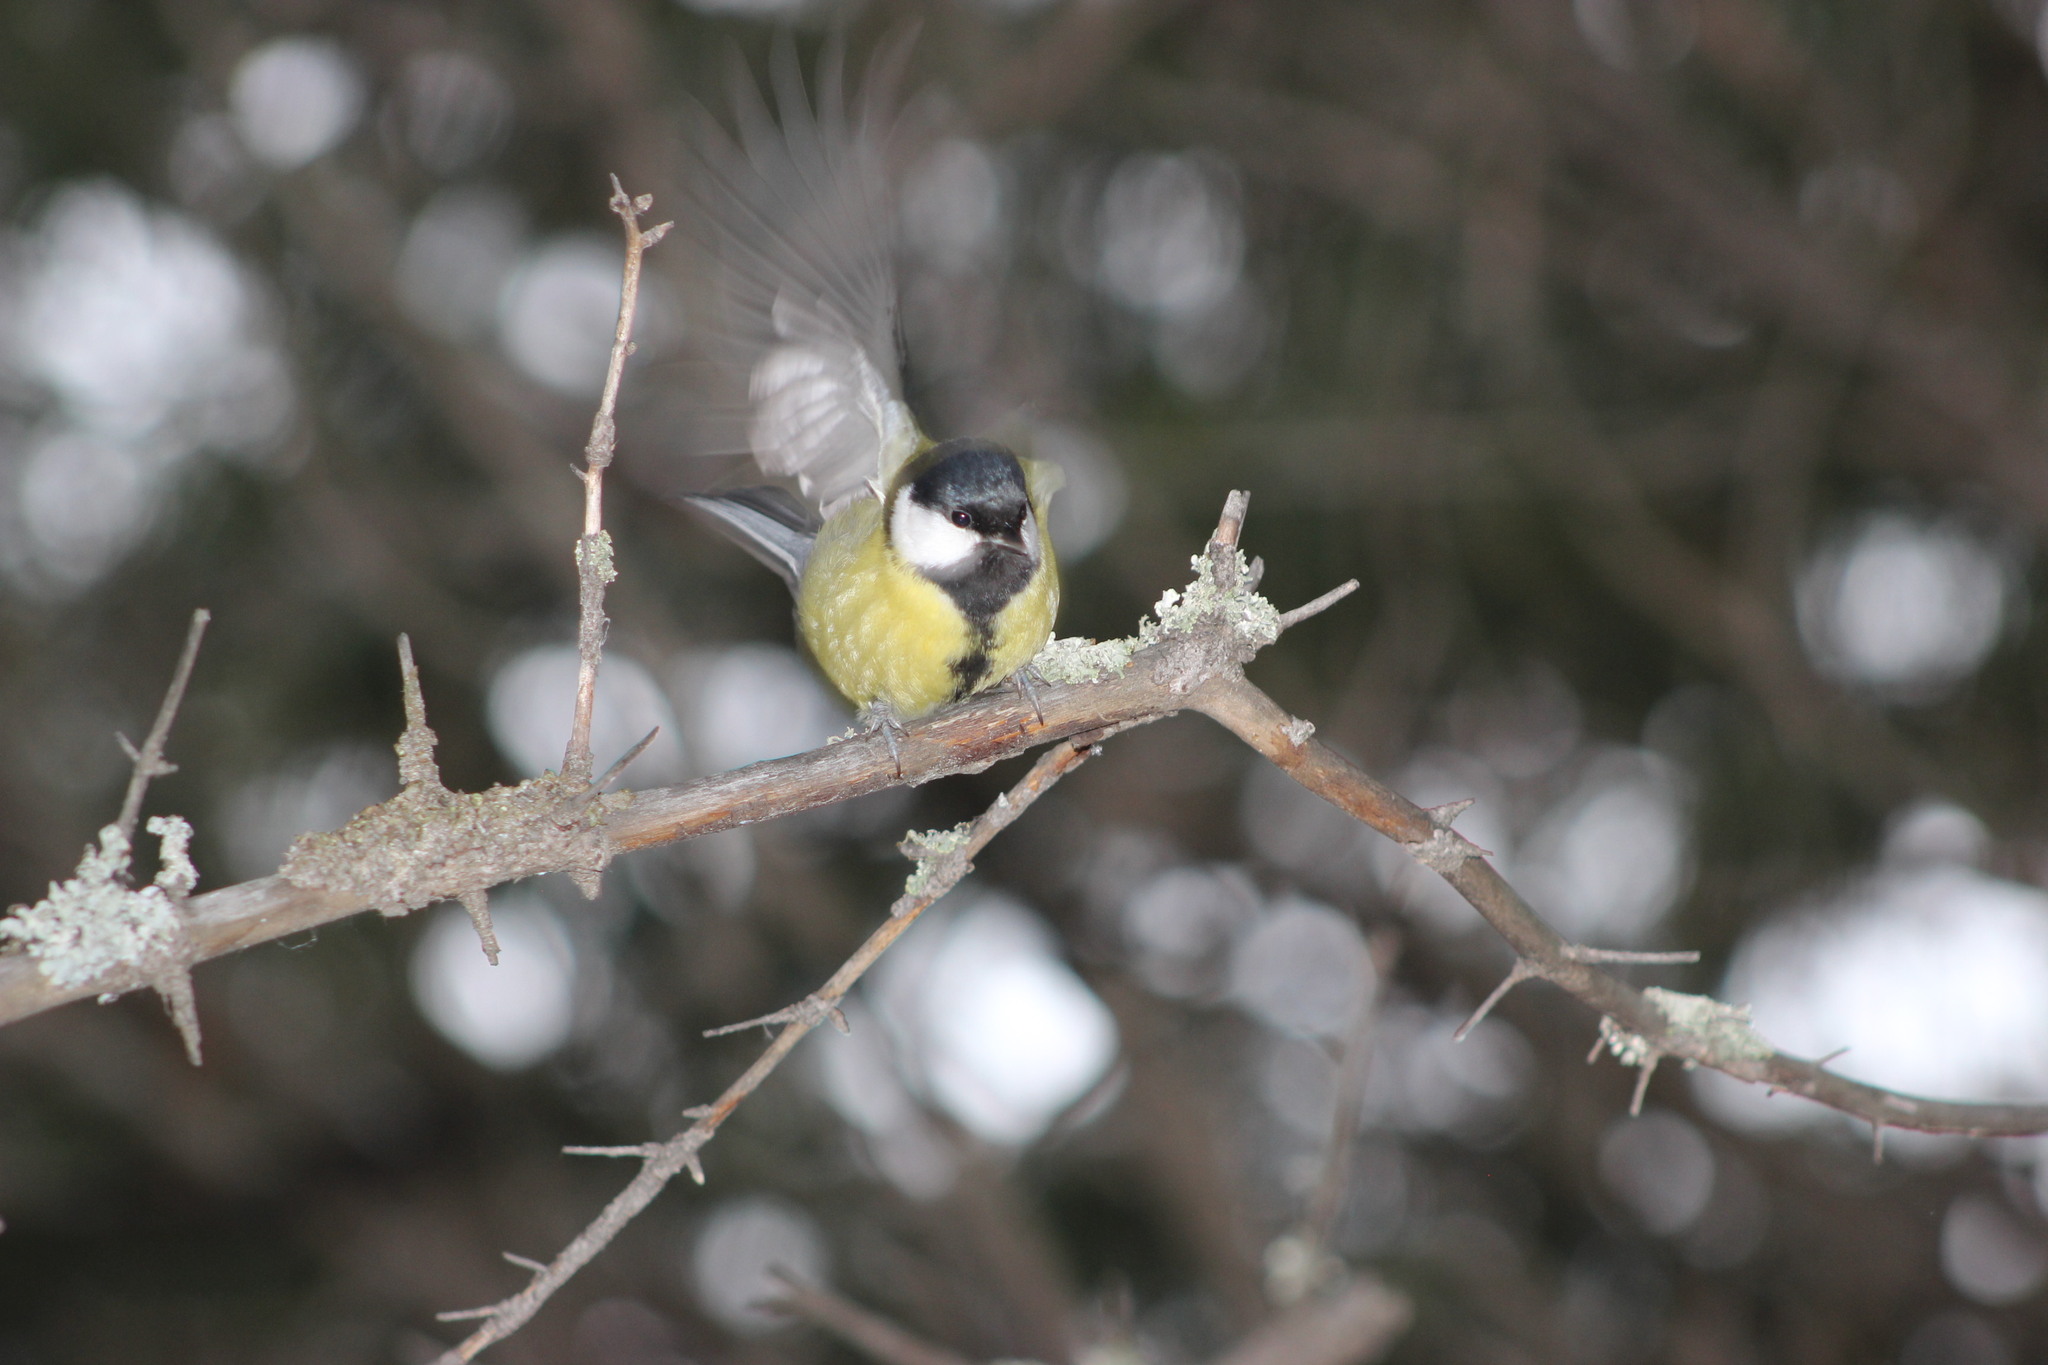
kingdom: Animalia
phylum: Chordata
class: Aves
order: Passeriformes
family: Paridae
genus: Parus
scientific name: Parus major
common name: Great tit
